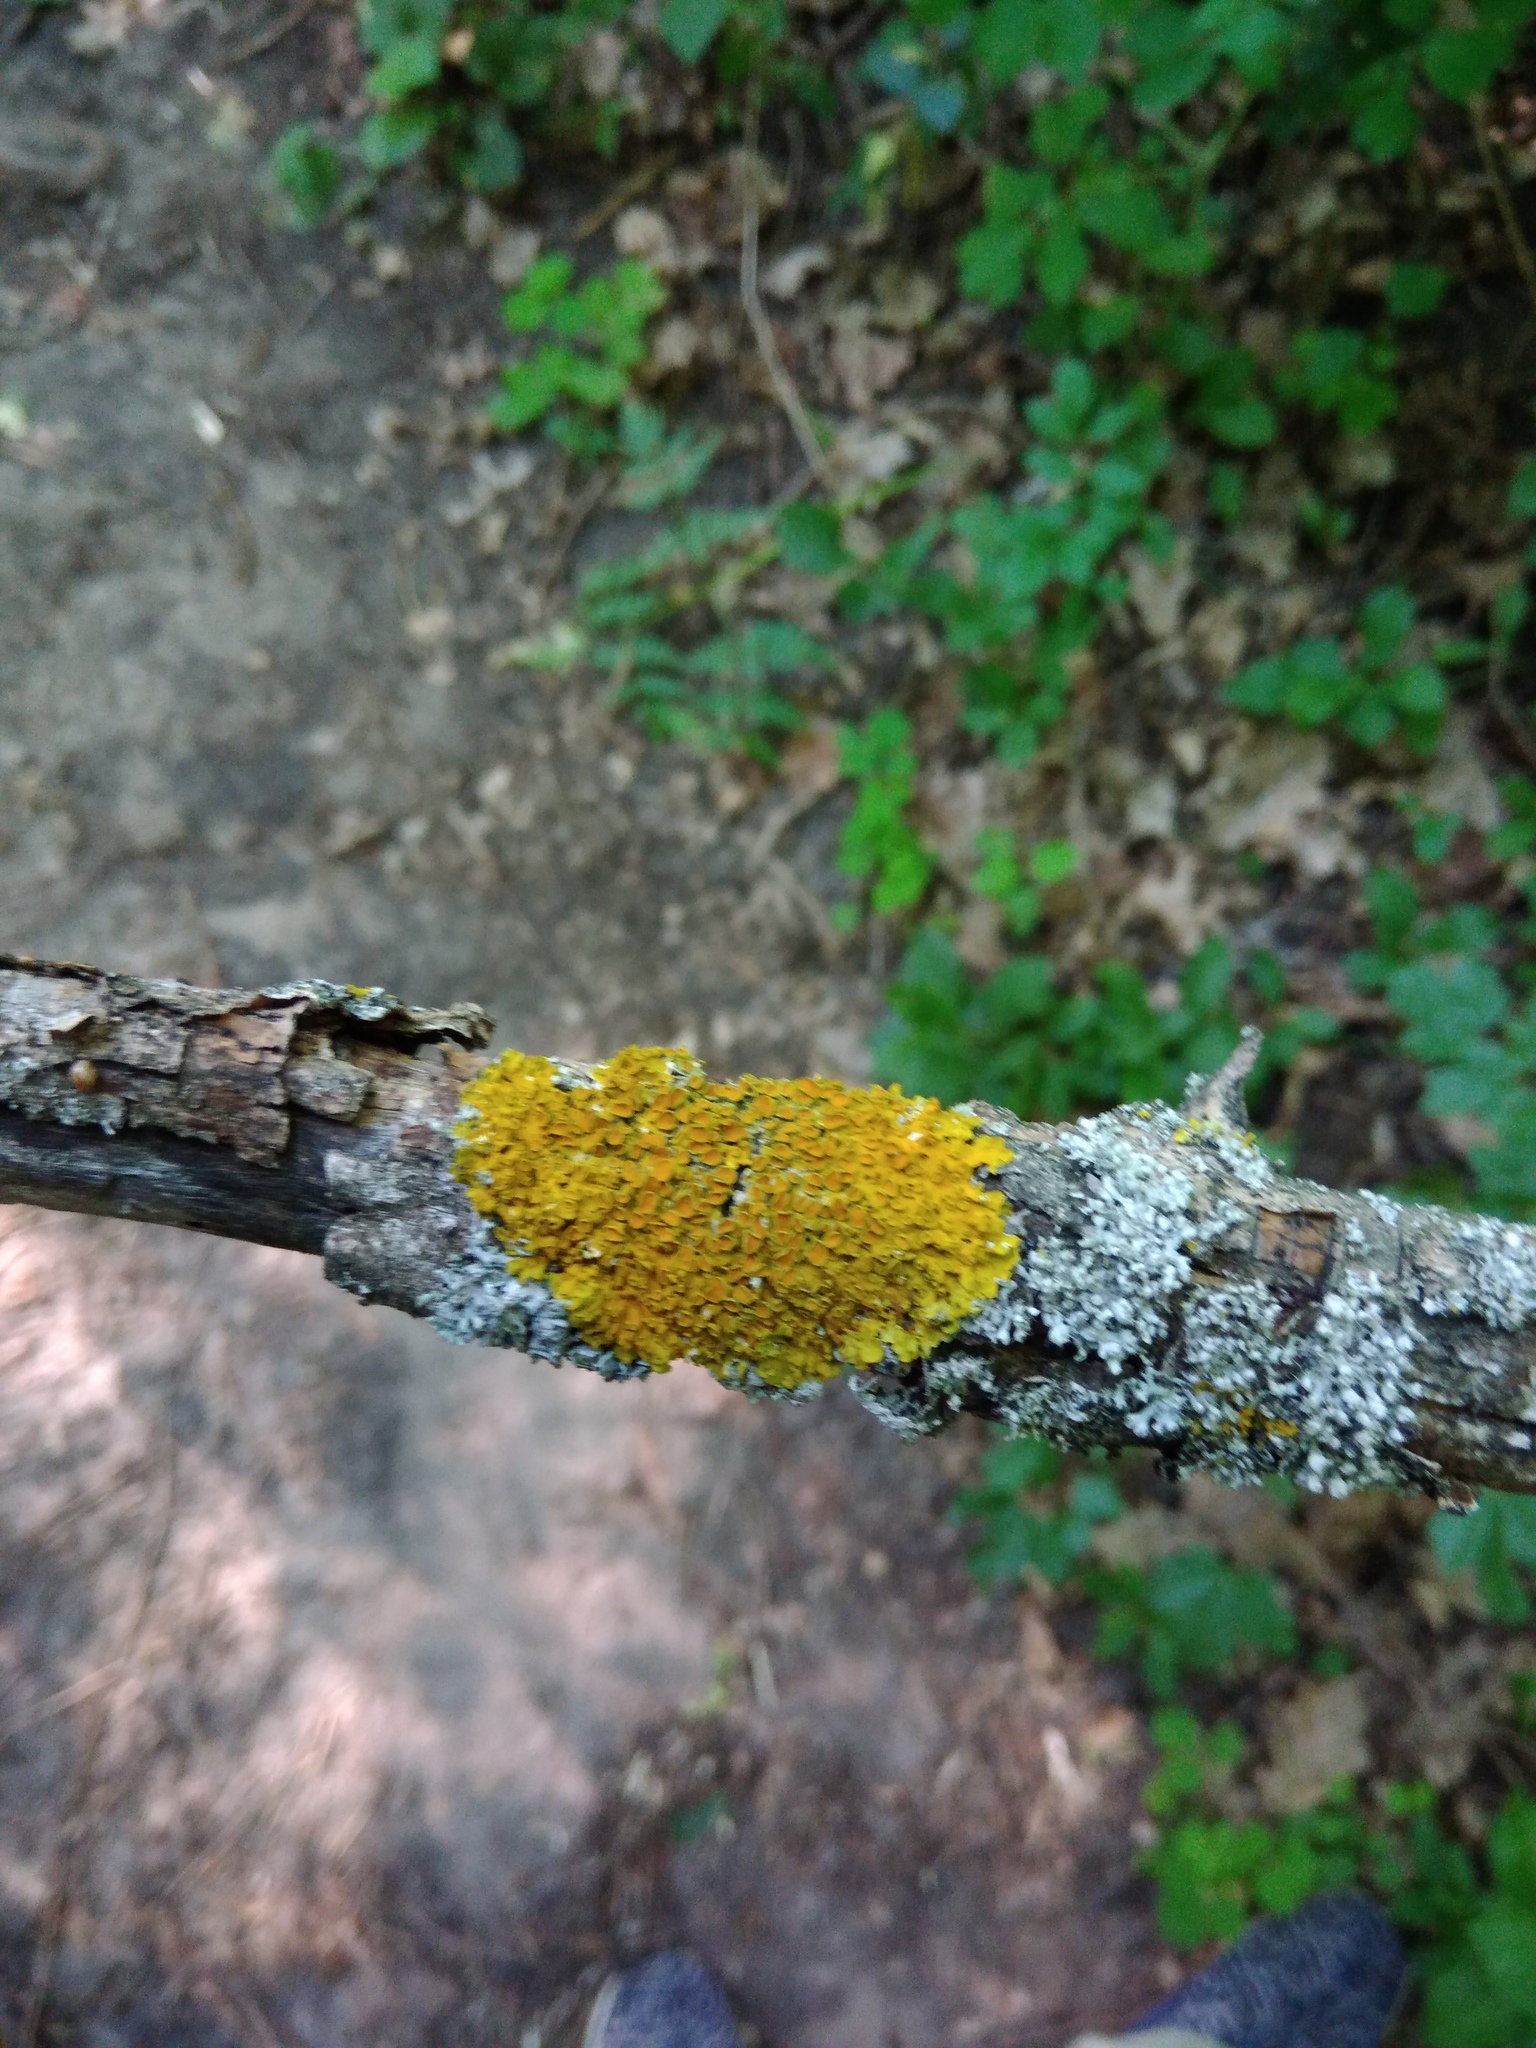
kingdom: Fungi
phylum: Ascomycota
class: Lecanoromycetes
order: Teloschistales
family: Teloschistaceae
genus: Xanthoria
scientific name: Xanthoria parietina
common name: Common orange lichen
